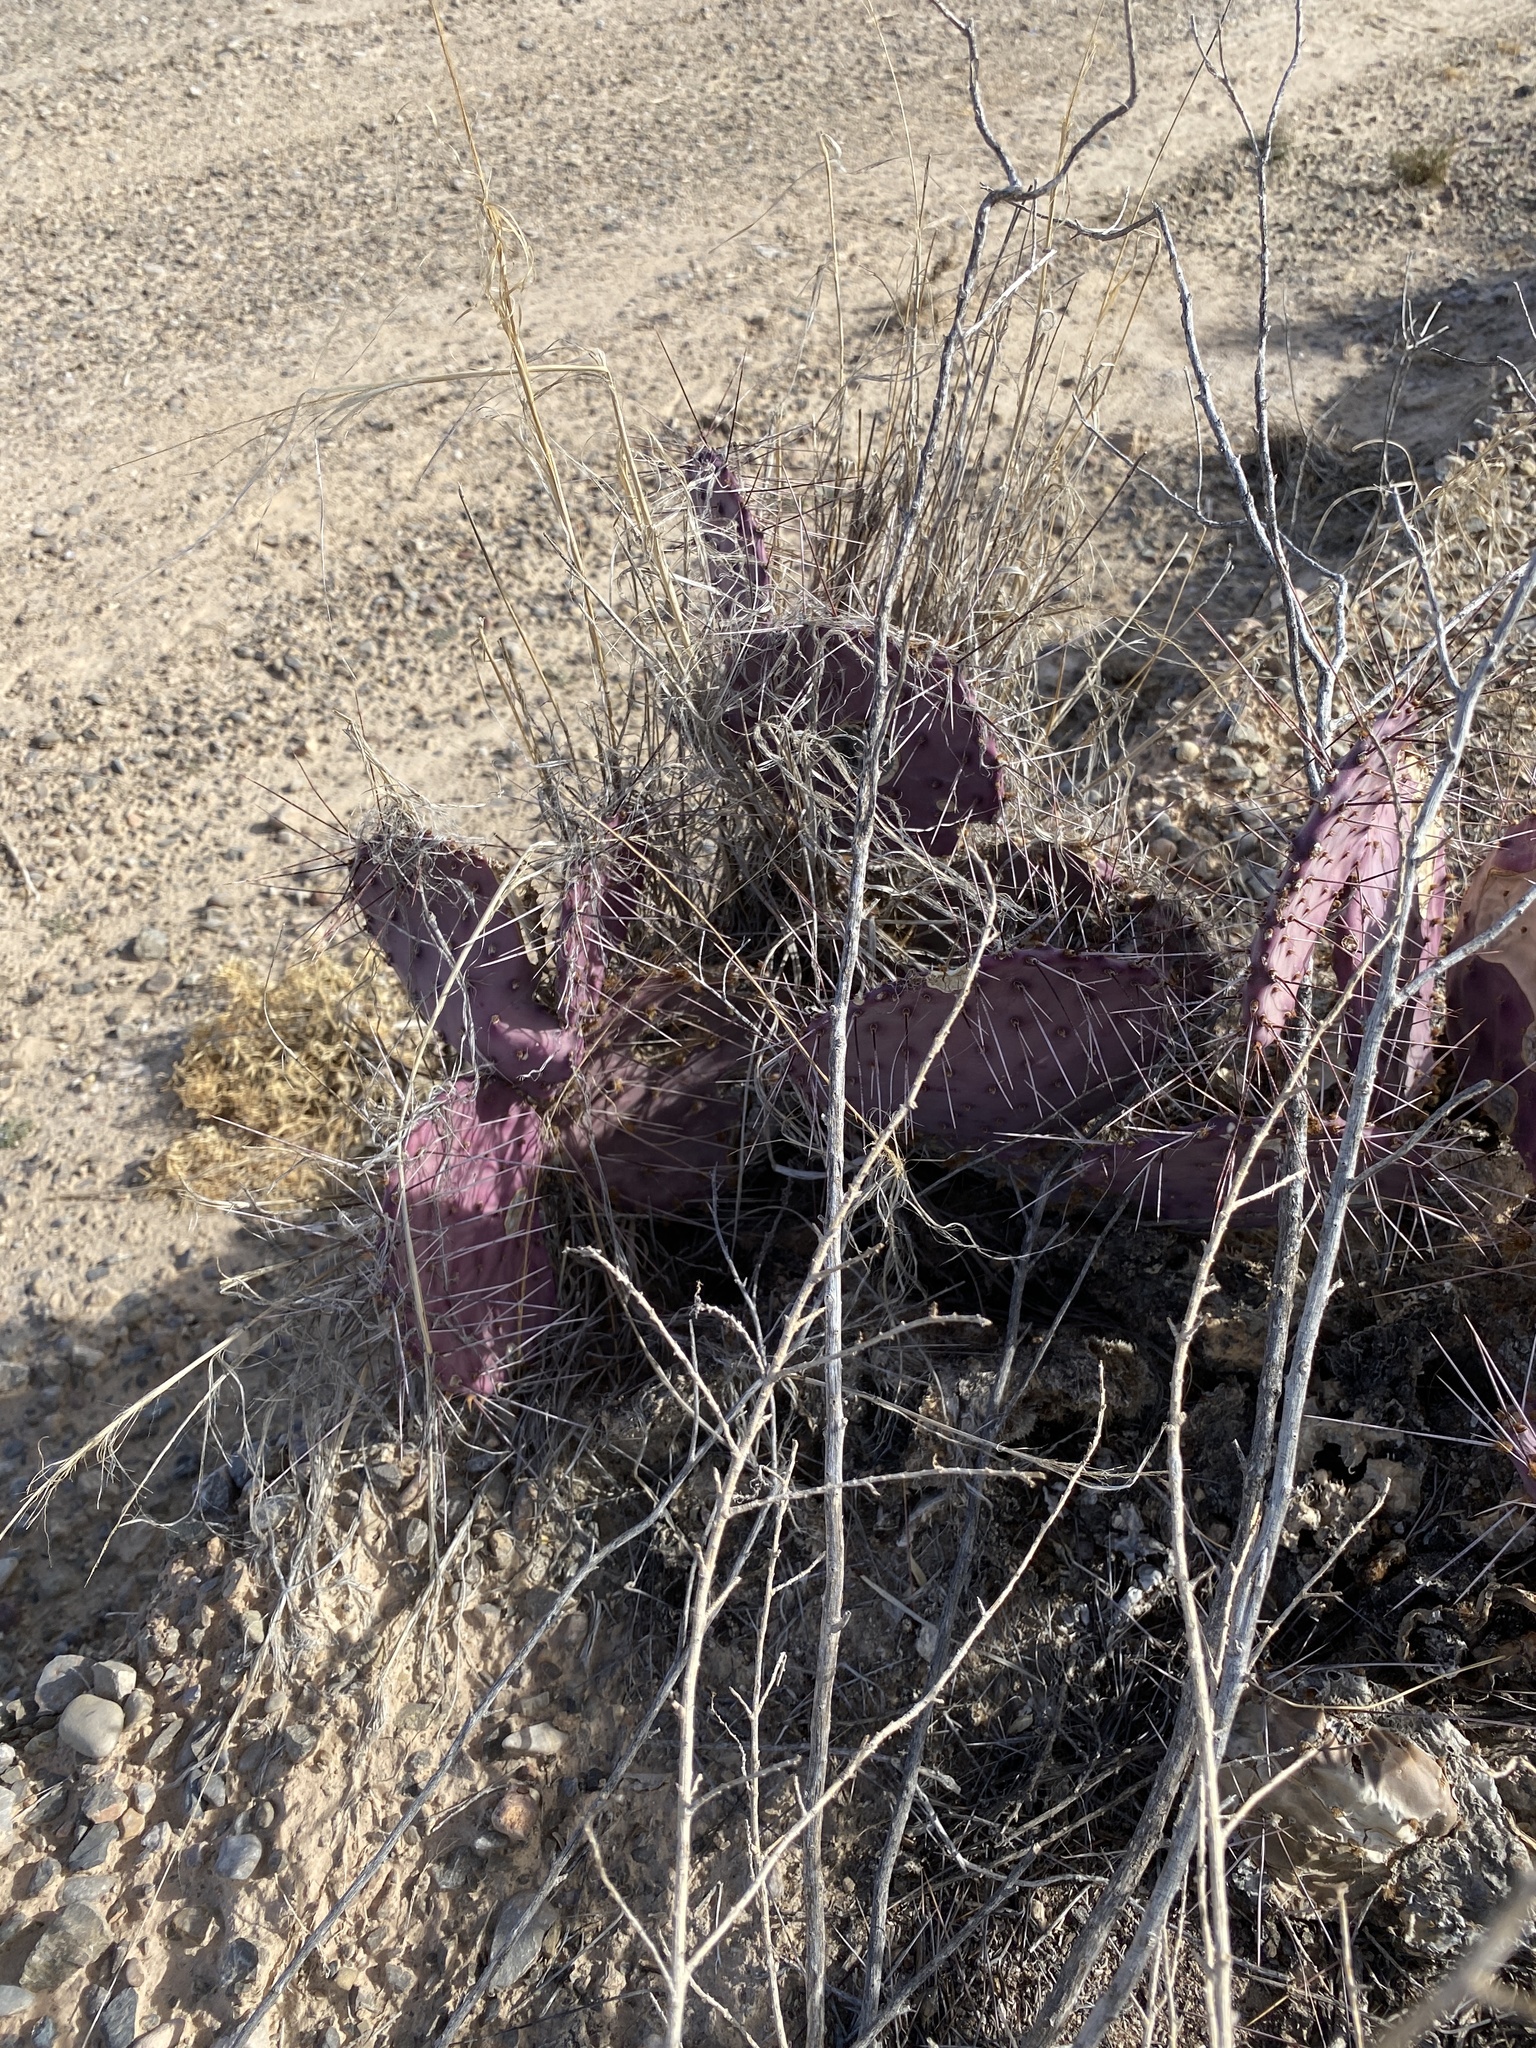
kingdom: Plantae
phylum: Tracheophyta
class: Magnoliopsida
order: Caryophyllales
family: Cactaceae
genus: Opuntia
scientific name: Opuntia macrocentra
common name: Purple prickly-pear
